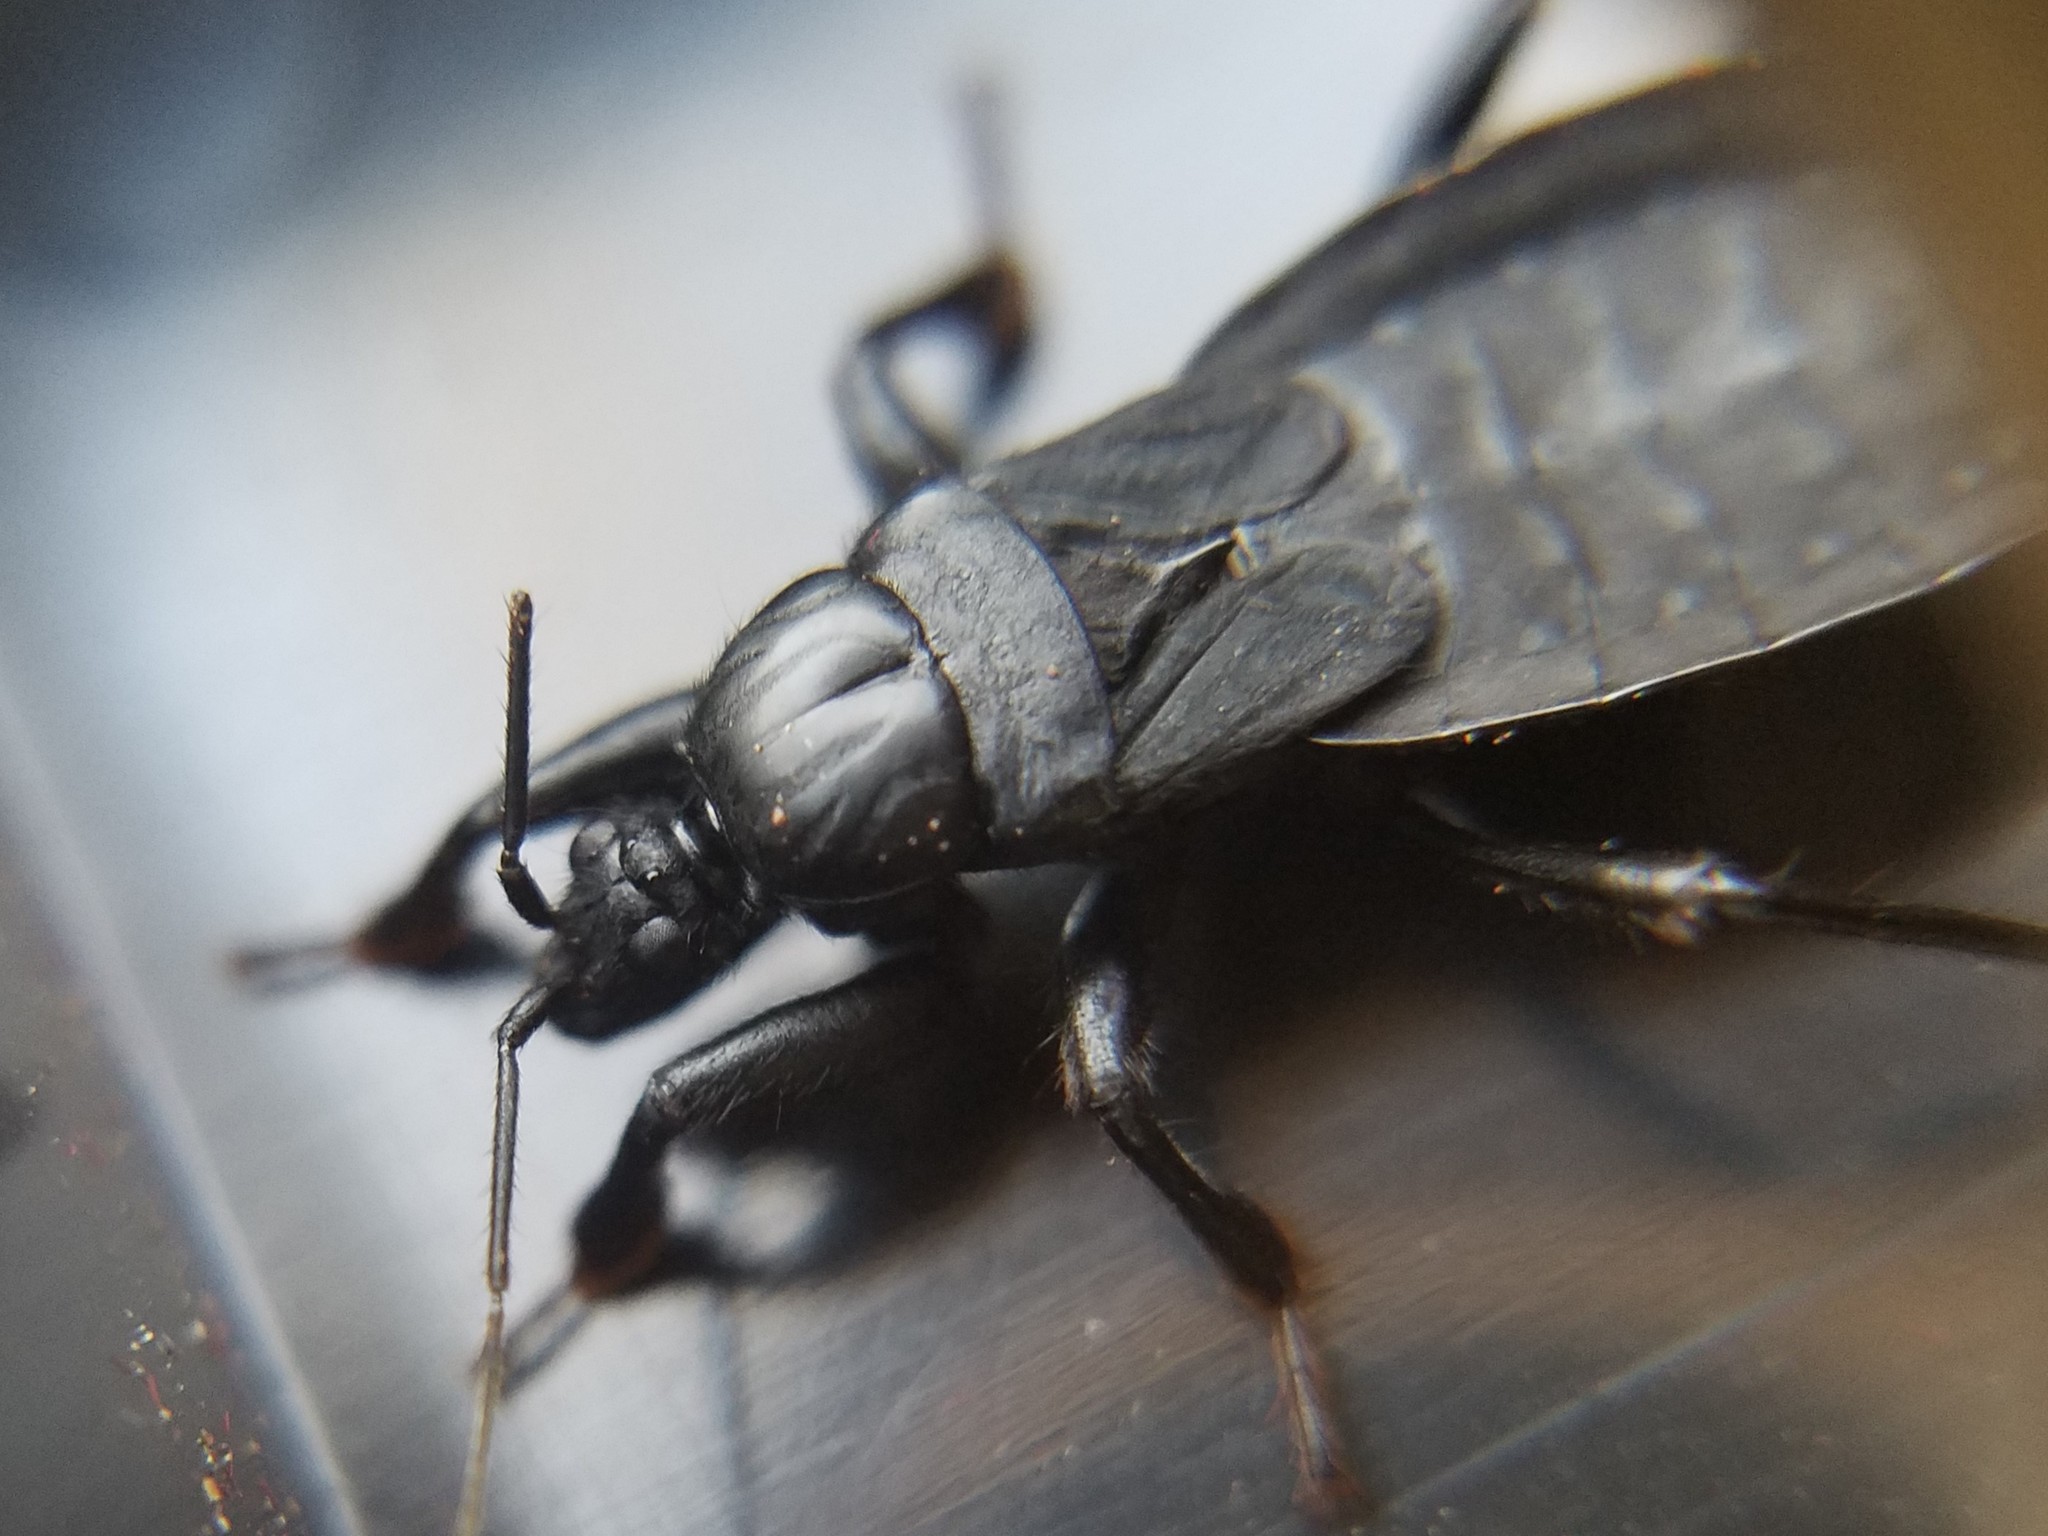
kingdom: Animalia
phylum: Arthropoda
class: Insecta
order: Hemiptera
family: Reduviidae
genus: Melanolestes
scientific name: Melanolestes picipes
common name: Assassin bug
